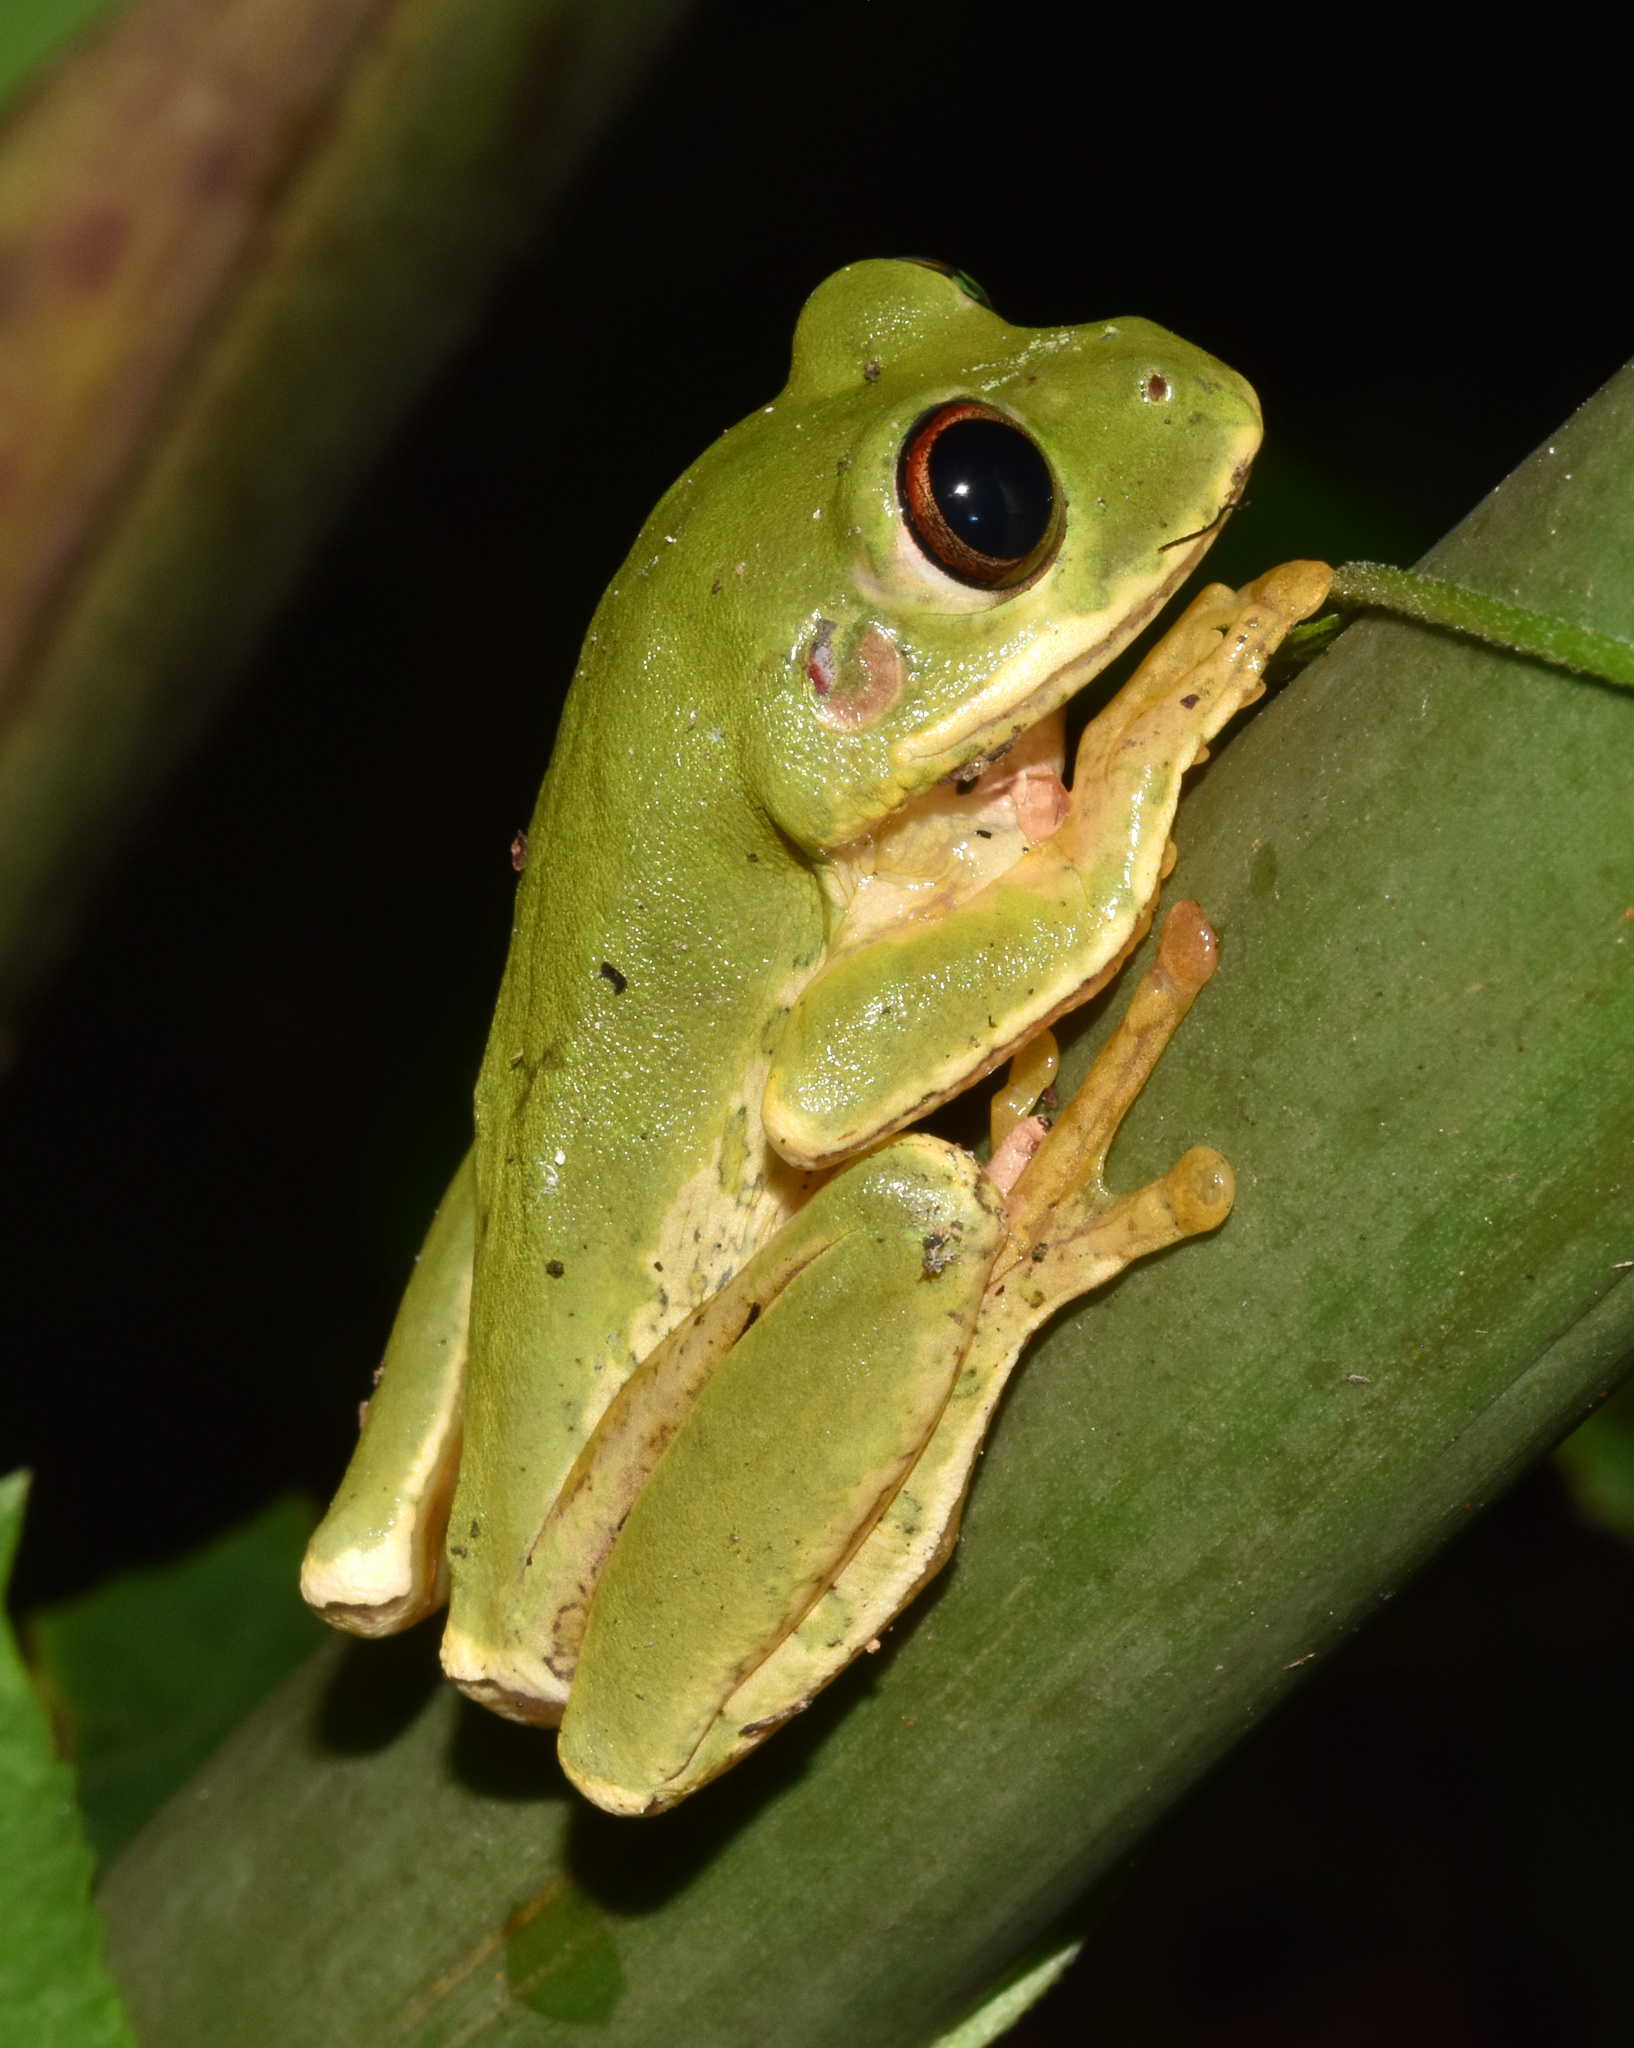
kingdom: Animalia
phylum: Chordata
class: Amphibia
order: Anura
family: Arthroleptidae
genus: Leptopelis
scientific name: Leptopelis natalensis
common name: Natal tree frog
